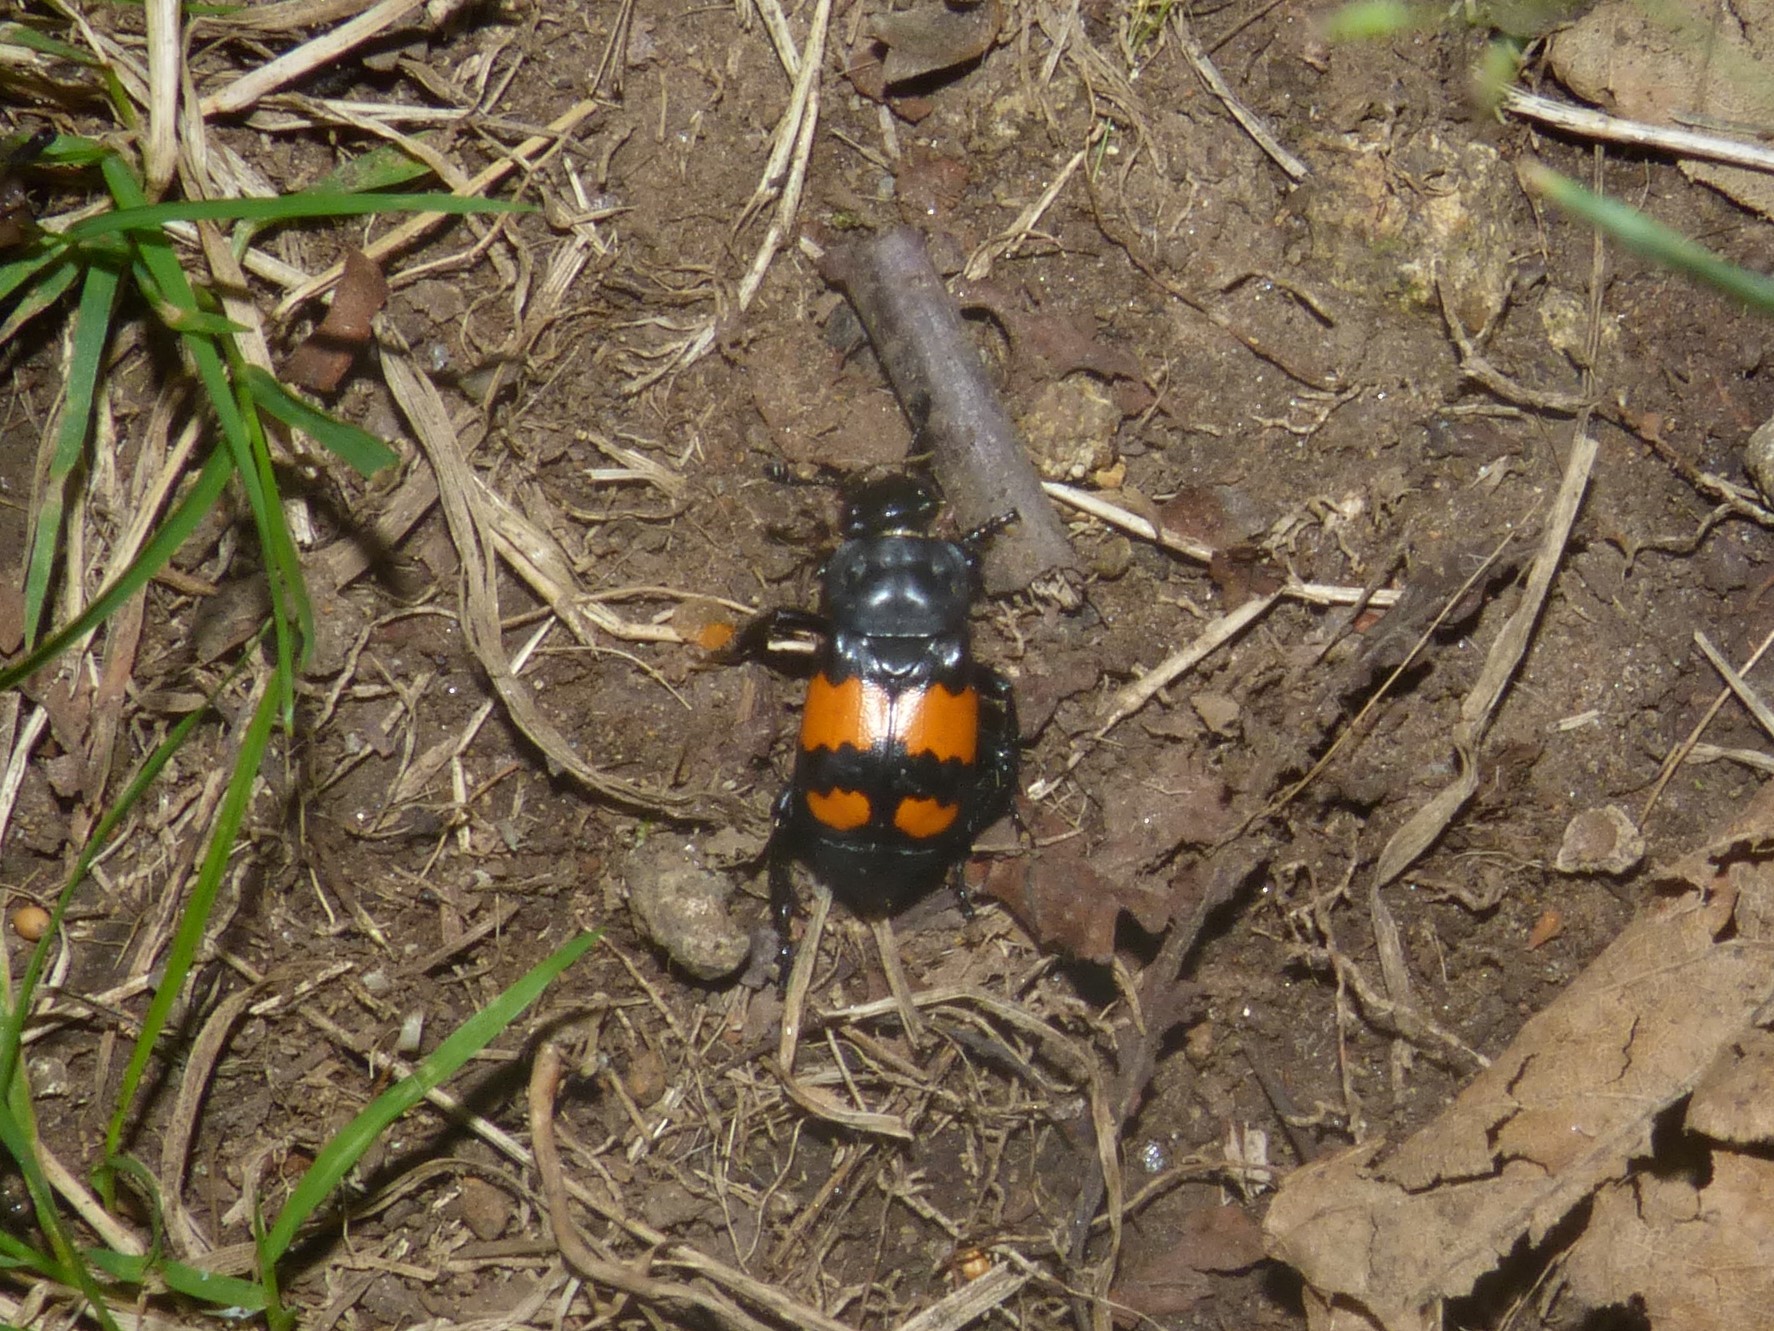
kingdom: Animalia
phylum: Arthropoda
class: Insecta
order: Coleoptera
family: Staphylinidae
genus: Nicrophorus
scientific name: Nicrophorus vespilloides
